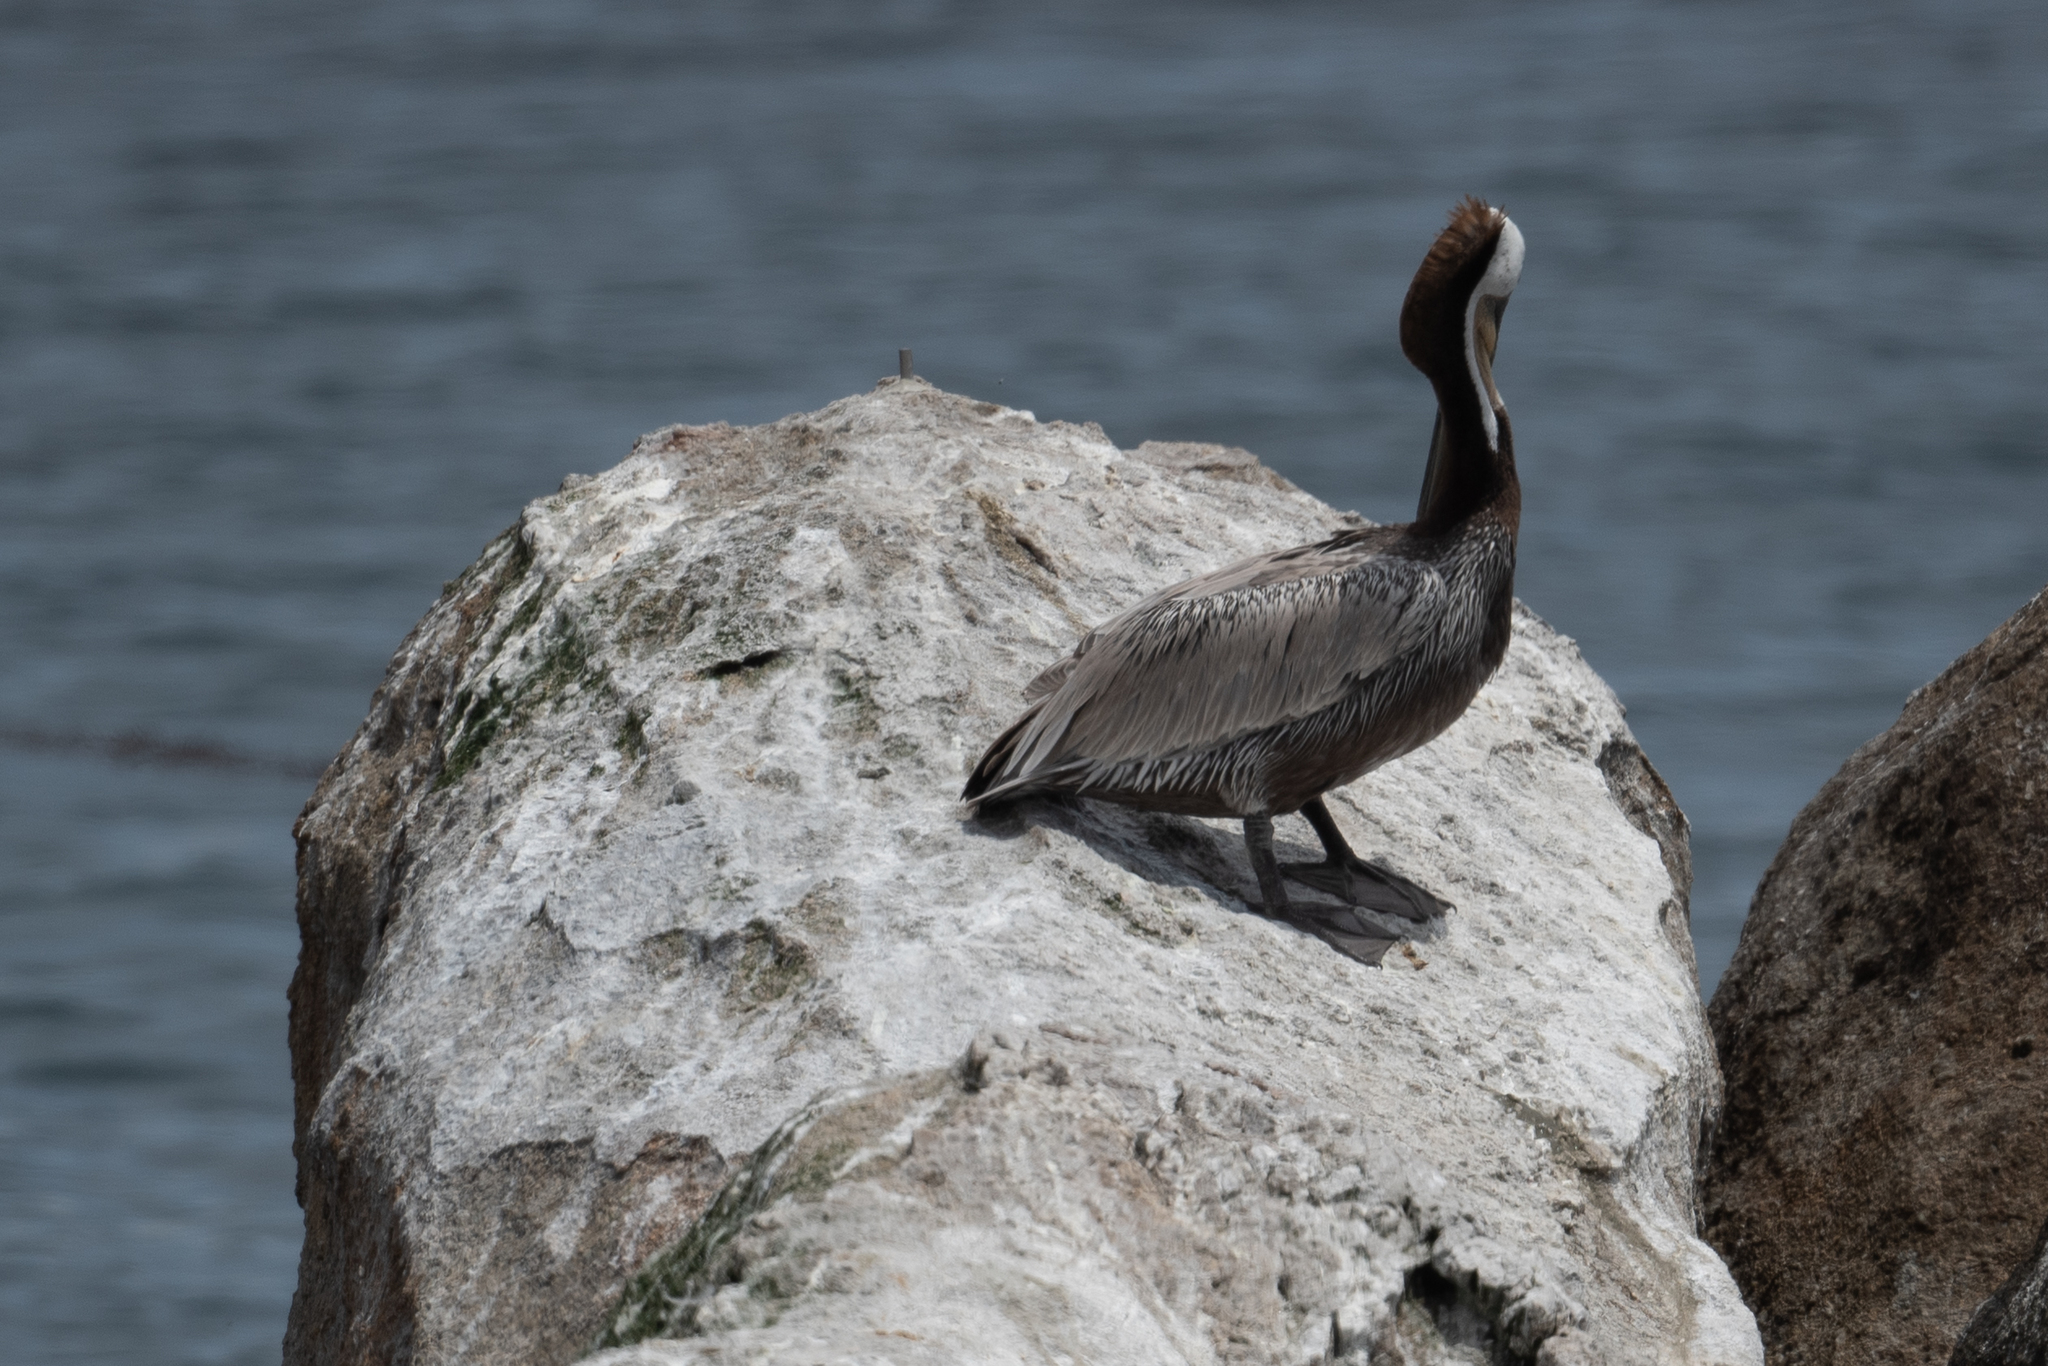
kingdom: Animalia
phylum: Chordata
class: Aves
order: Pelecaniformes
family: Pelecanidae
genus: Pelecanus
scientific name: Pelecanus occidentalis
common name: Brown pelican
